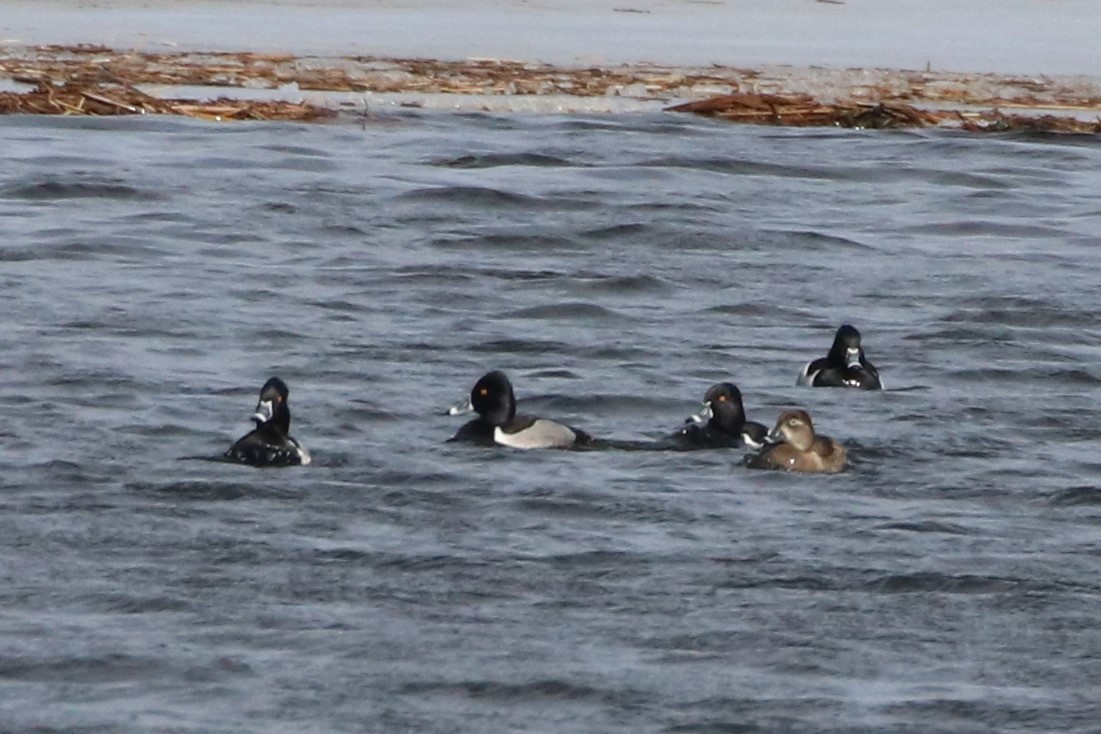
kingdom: Animalia
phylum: Chordata
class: Aves
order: Anseriformes
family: Anatidae
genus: Aythya
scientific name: Aythya collaris
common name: Ring-necked duck
